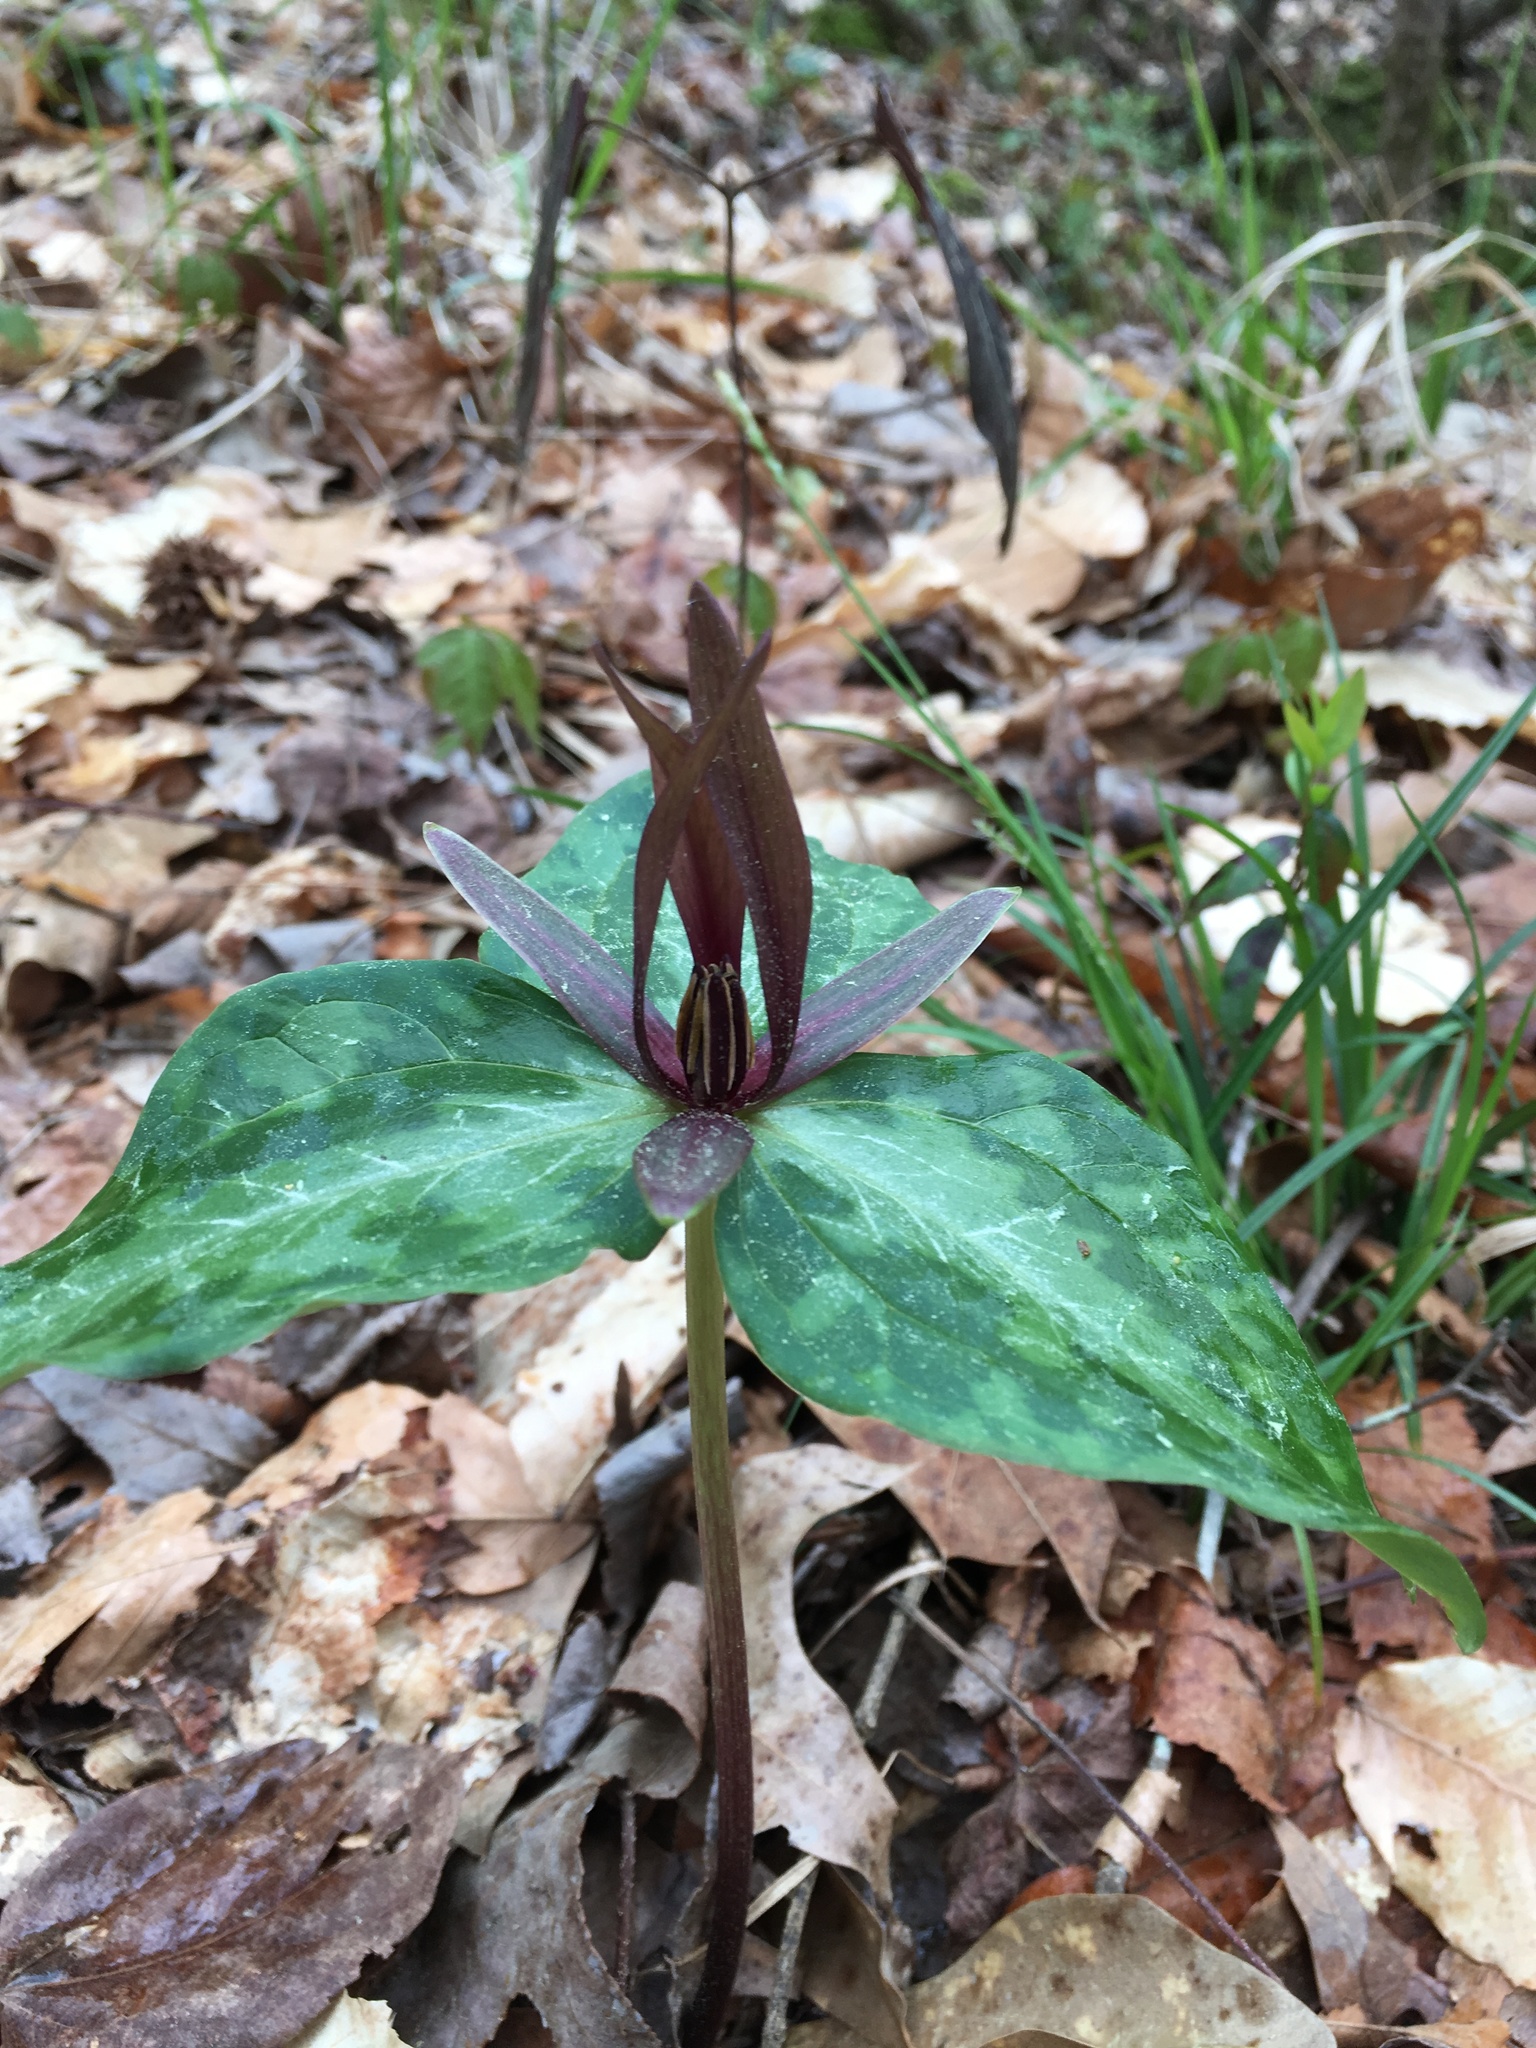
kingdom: Plantae
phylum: Tracheophyta
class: Liliopsida
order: Liliales
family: Melanthiaceae
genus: Trillium
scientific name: Trillium ludovicianum
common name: Louisiana toadshade
